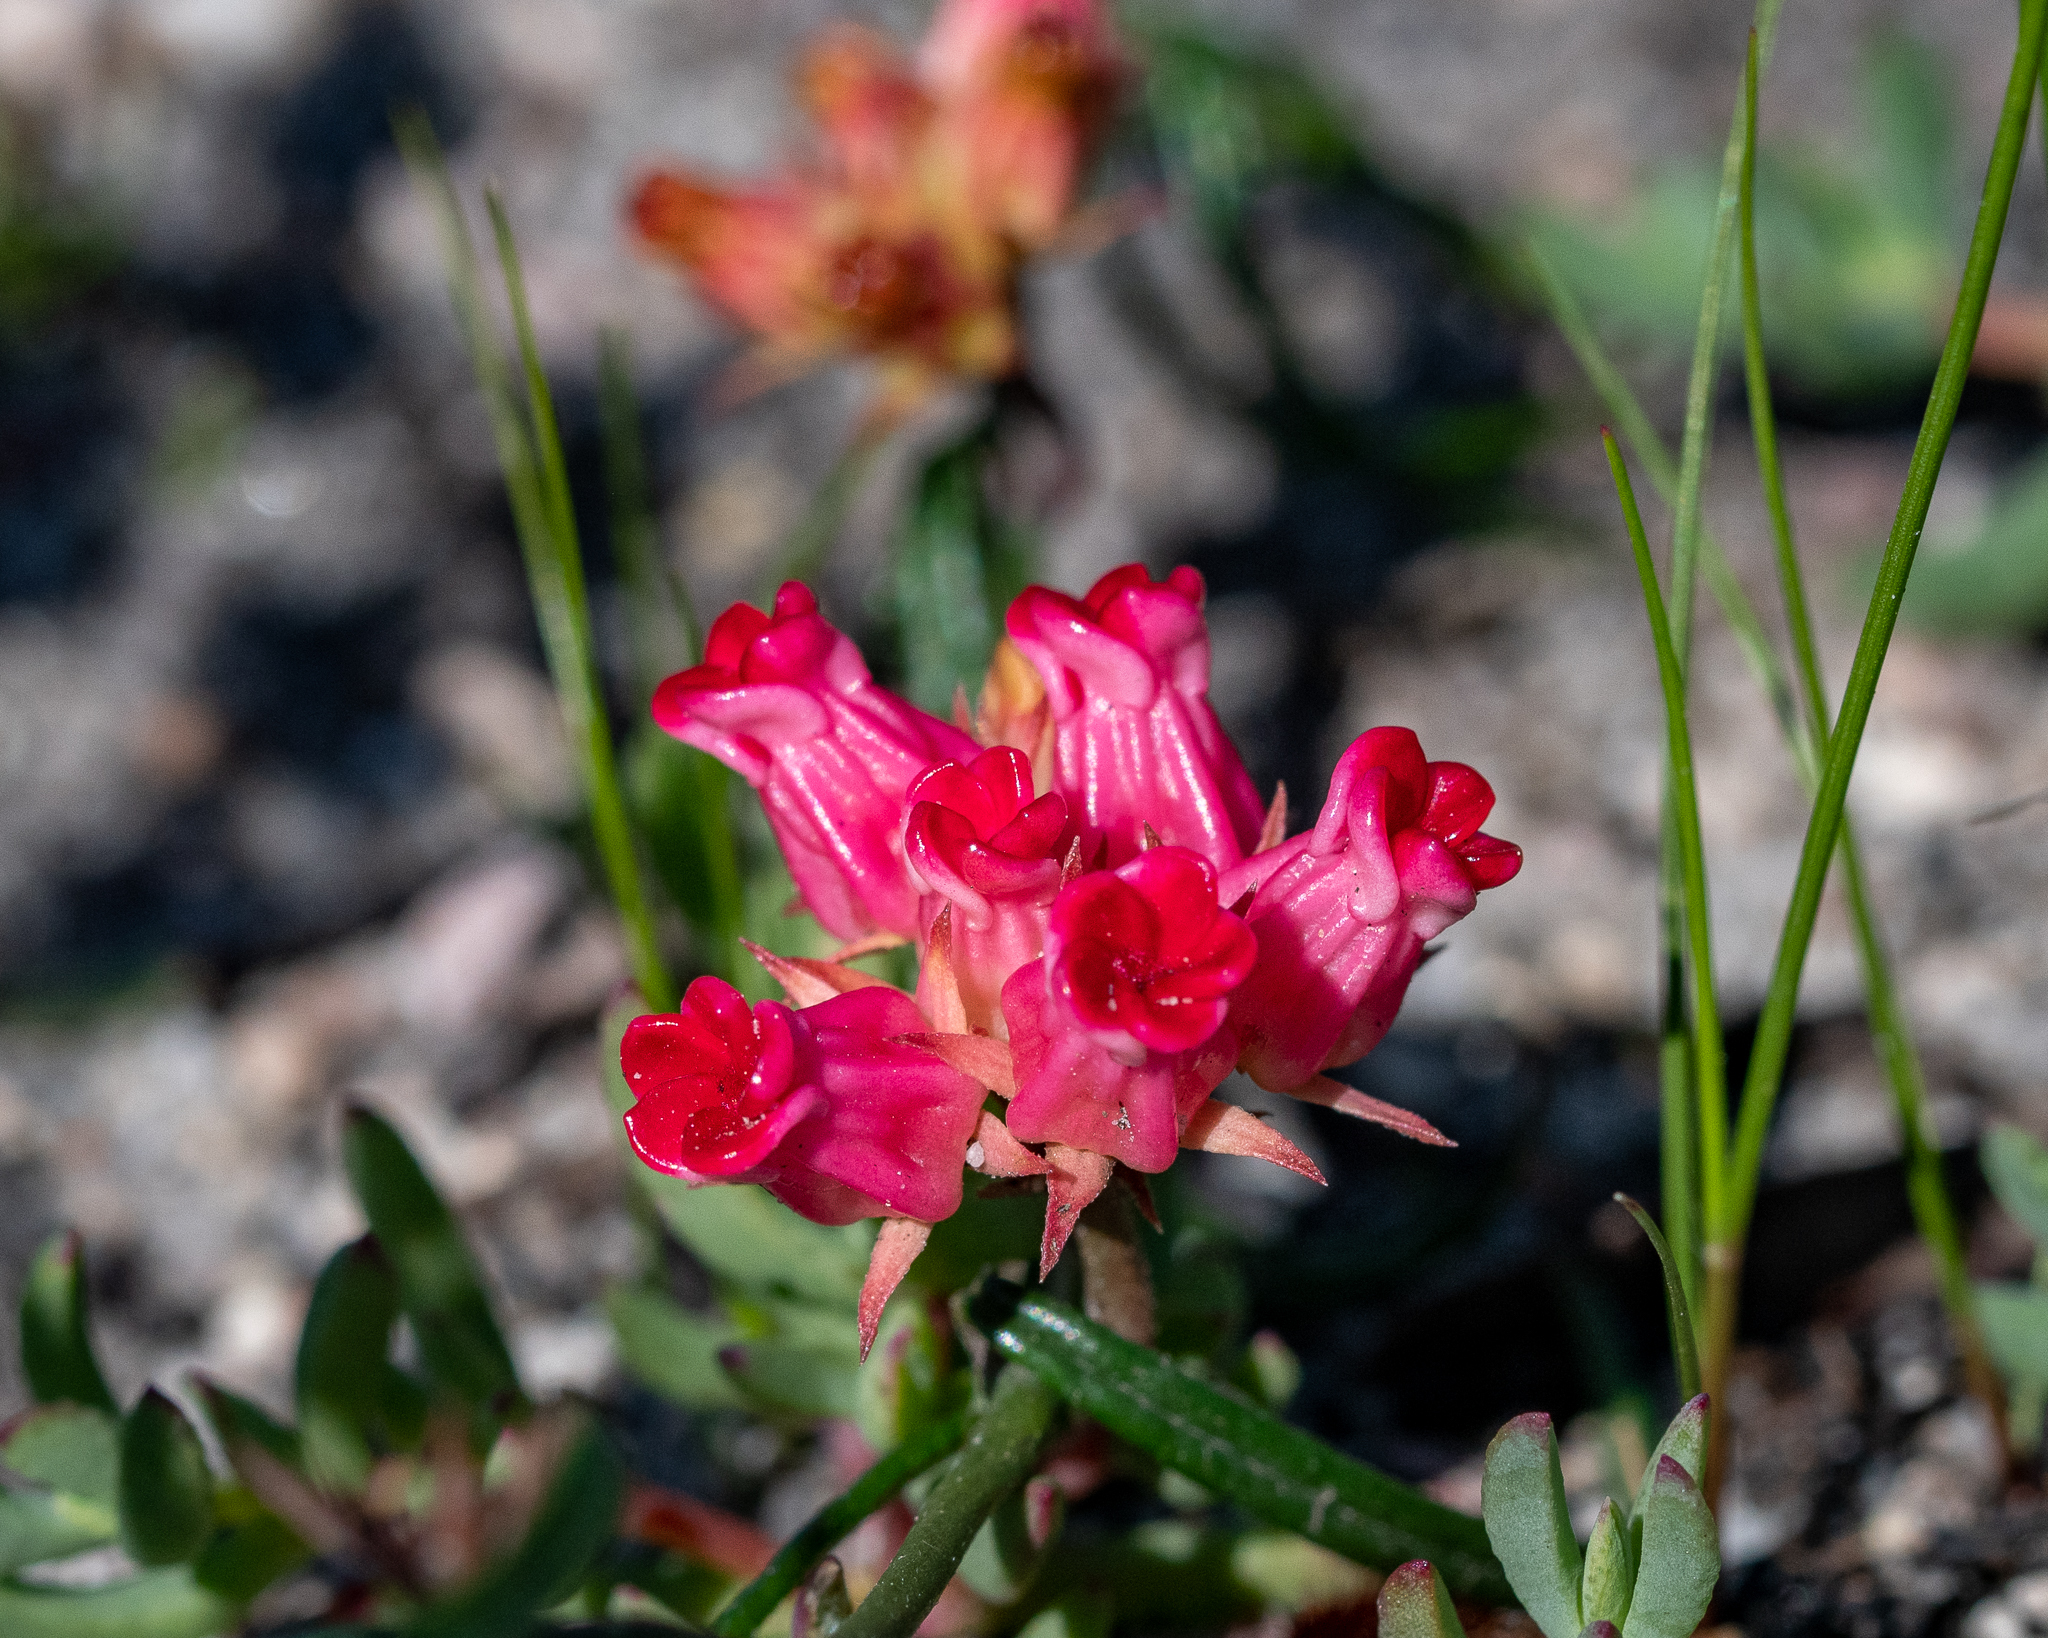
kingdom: Plantae
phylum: Tracheophyta
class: Magnoliopsida
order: Gentianales
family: Apocynaceae
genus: Microloma
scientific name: Microloma tenuifolium
